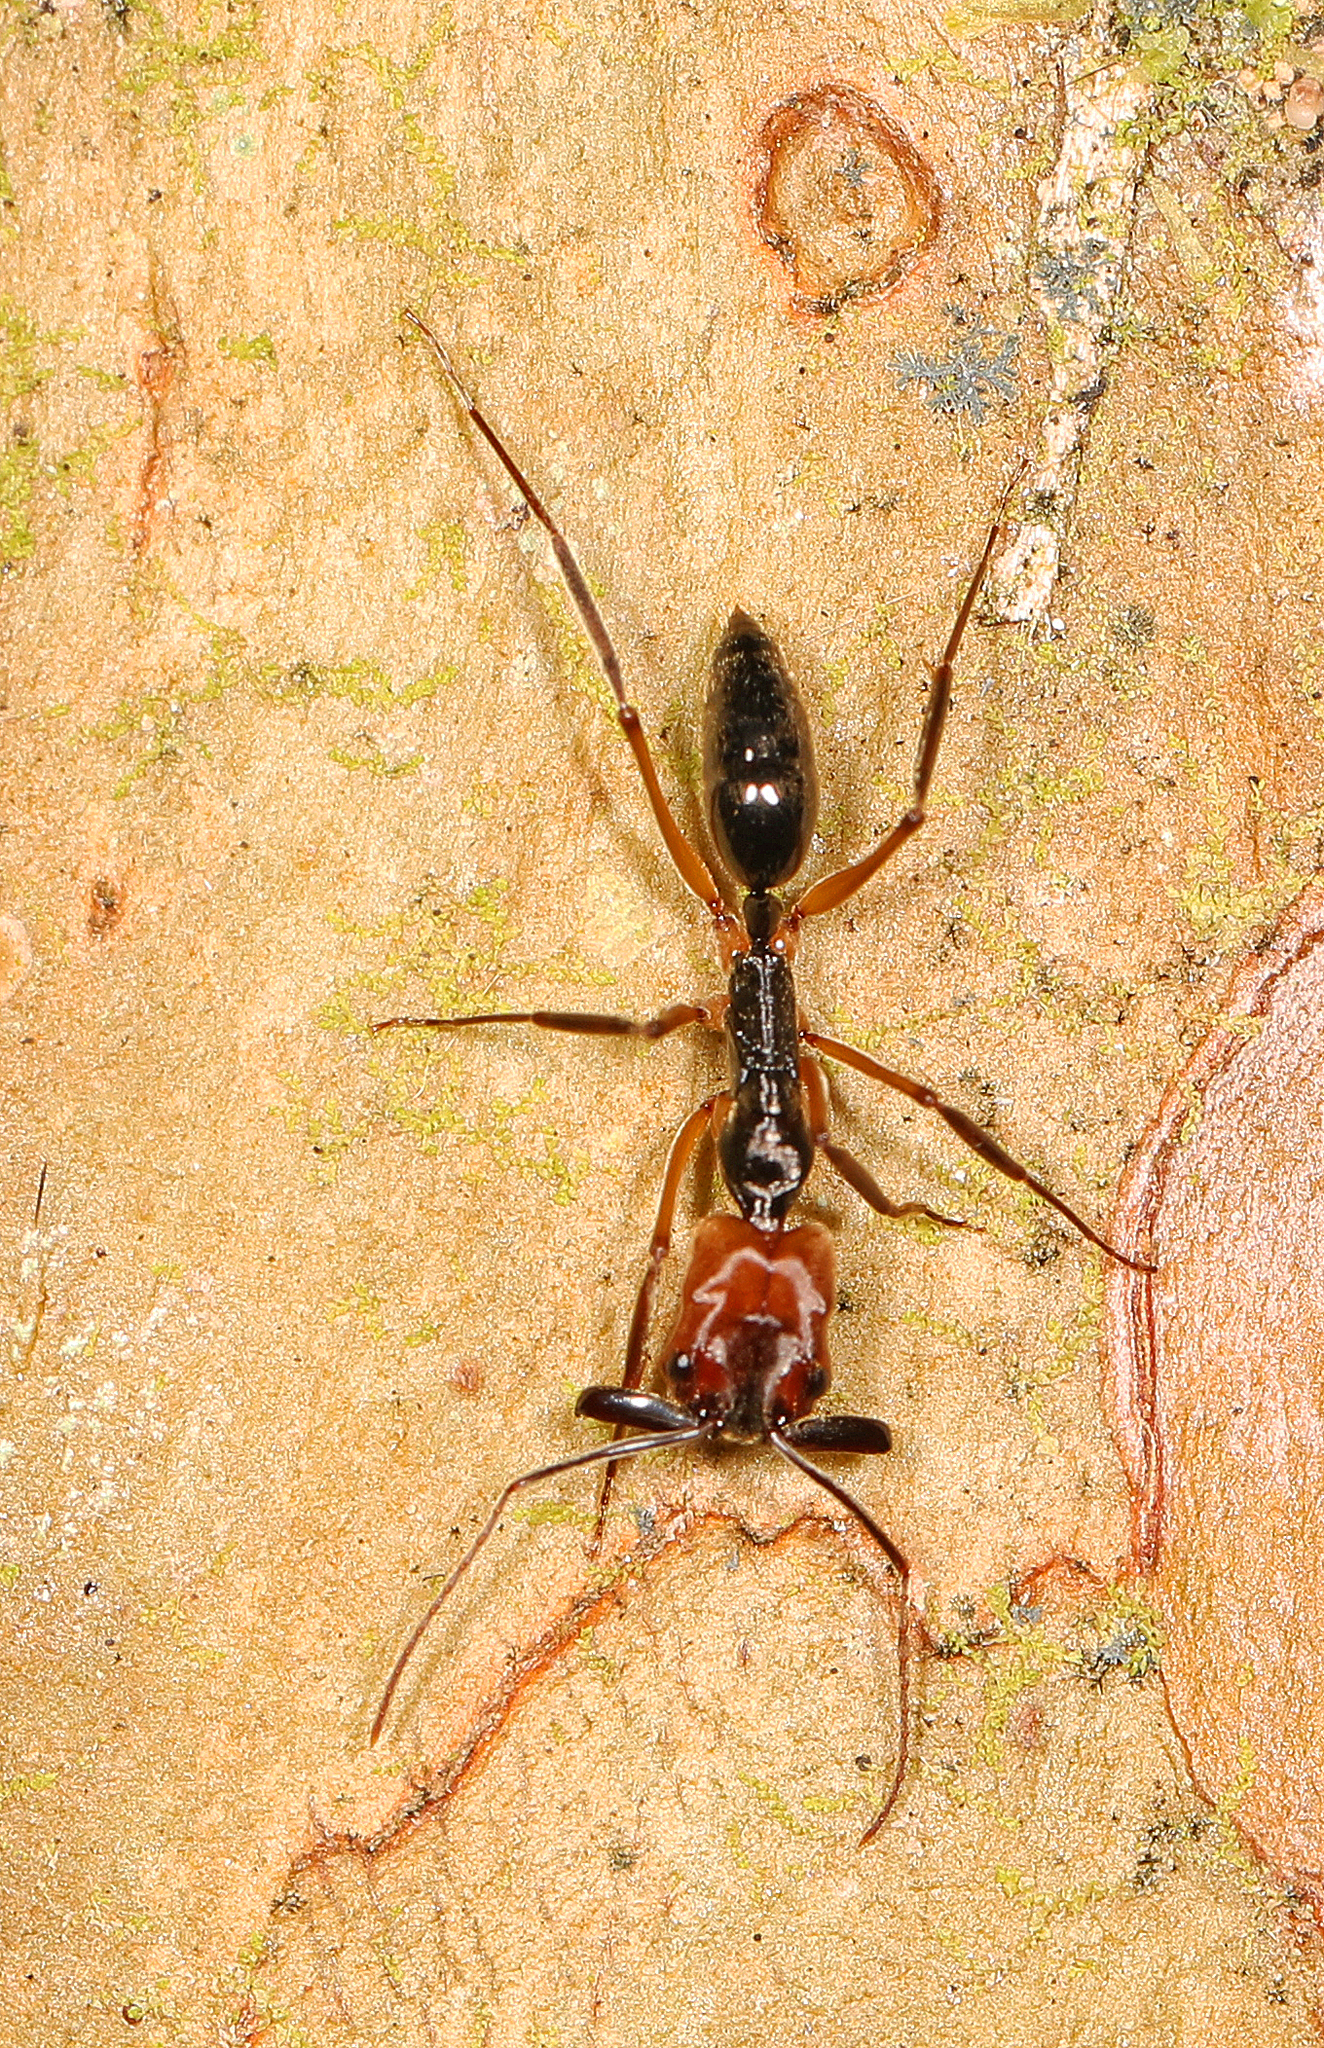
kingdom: Animalia
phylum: Arthropoda
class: Insecta
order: Hymenoptera
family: Formicidae
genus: Odontomachus
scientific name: Odontomachus erythrocephalus
